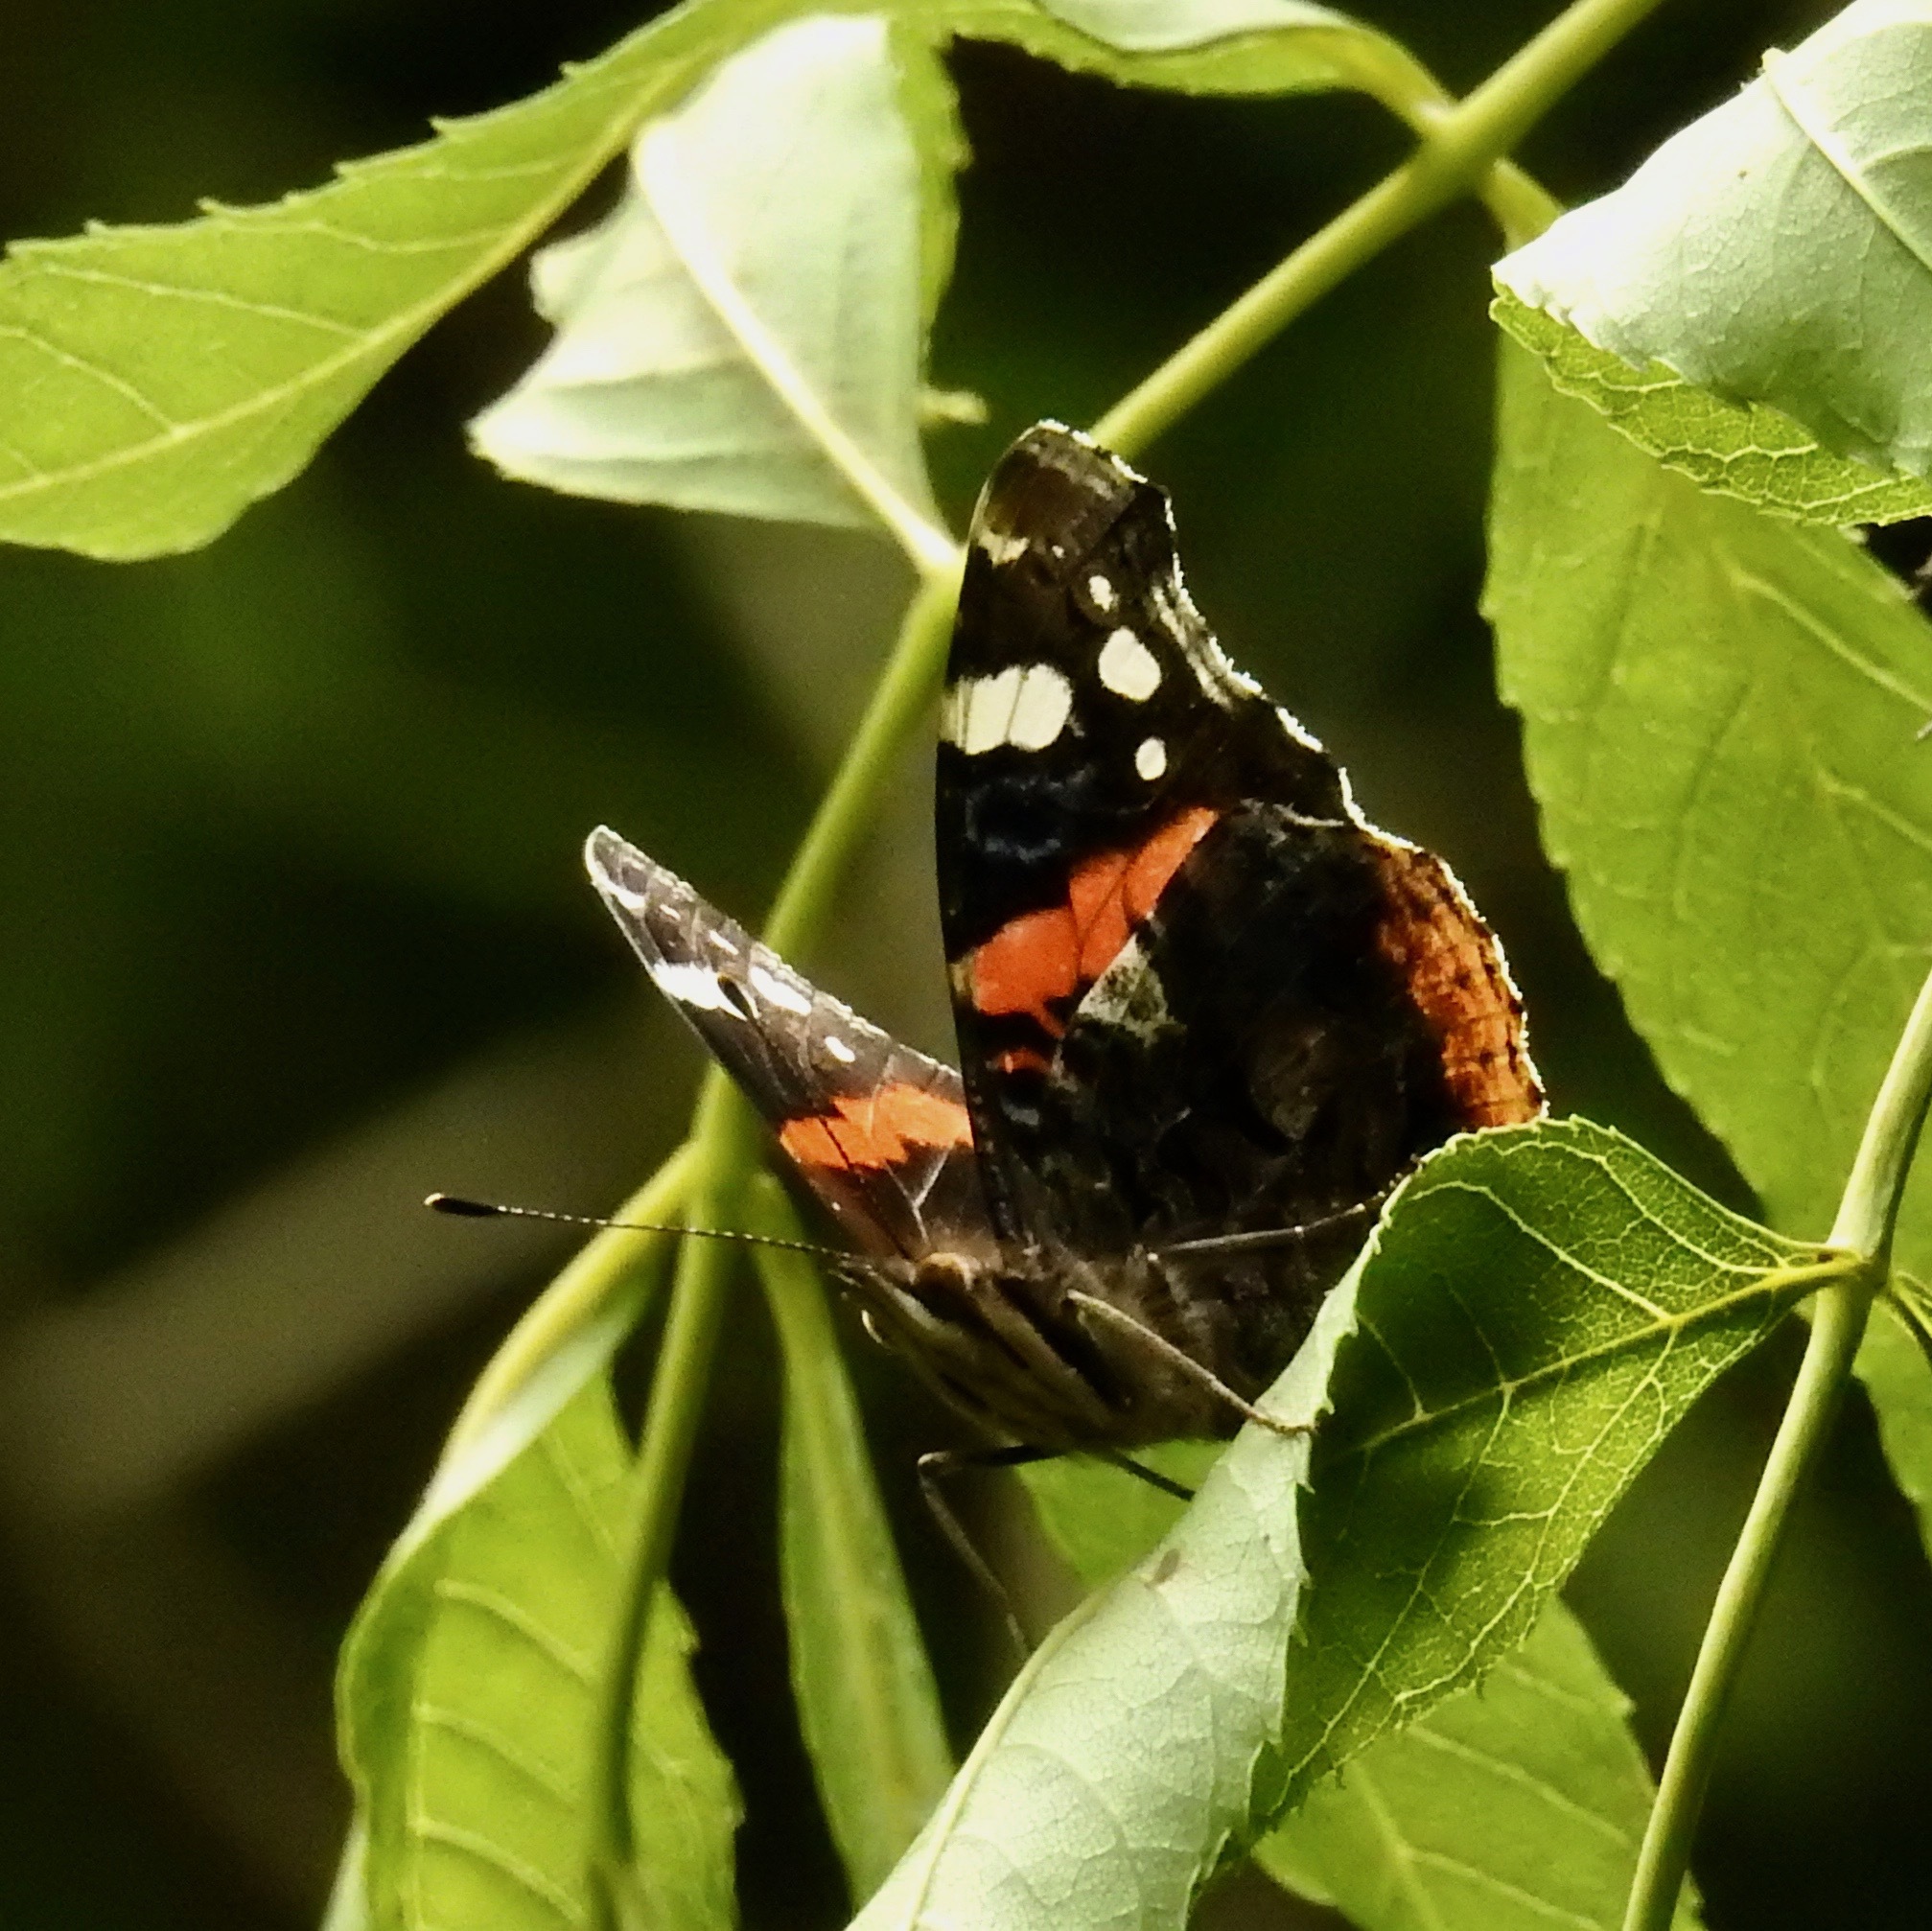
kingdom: Animalia
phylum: Arthropoda
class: Insecta
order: Lepidoptera
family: Nymphalidae
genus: Vanessa
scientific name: Vanessa atalanta
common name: Red admiral
